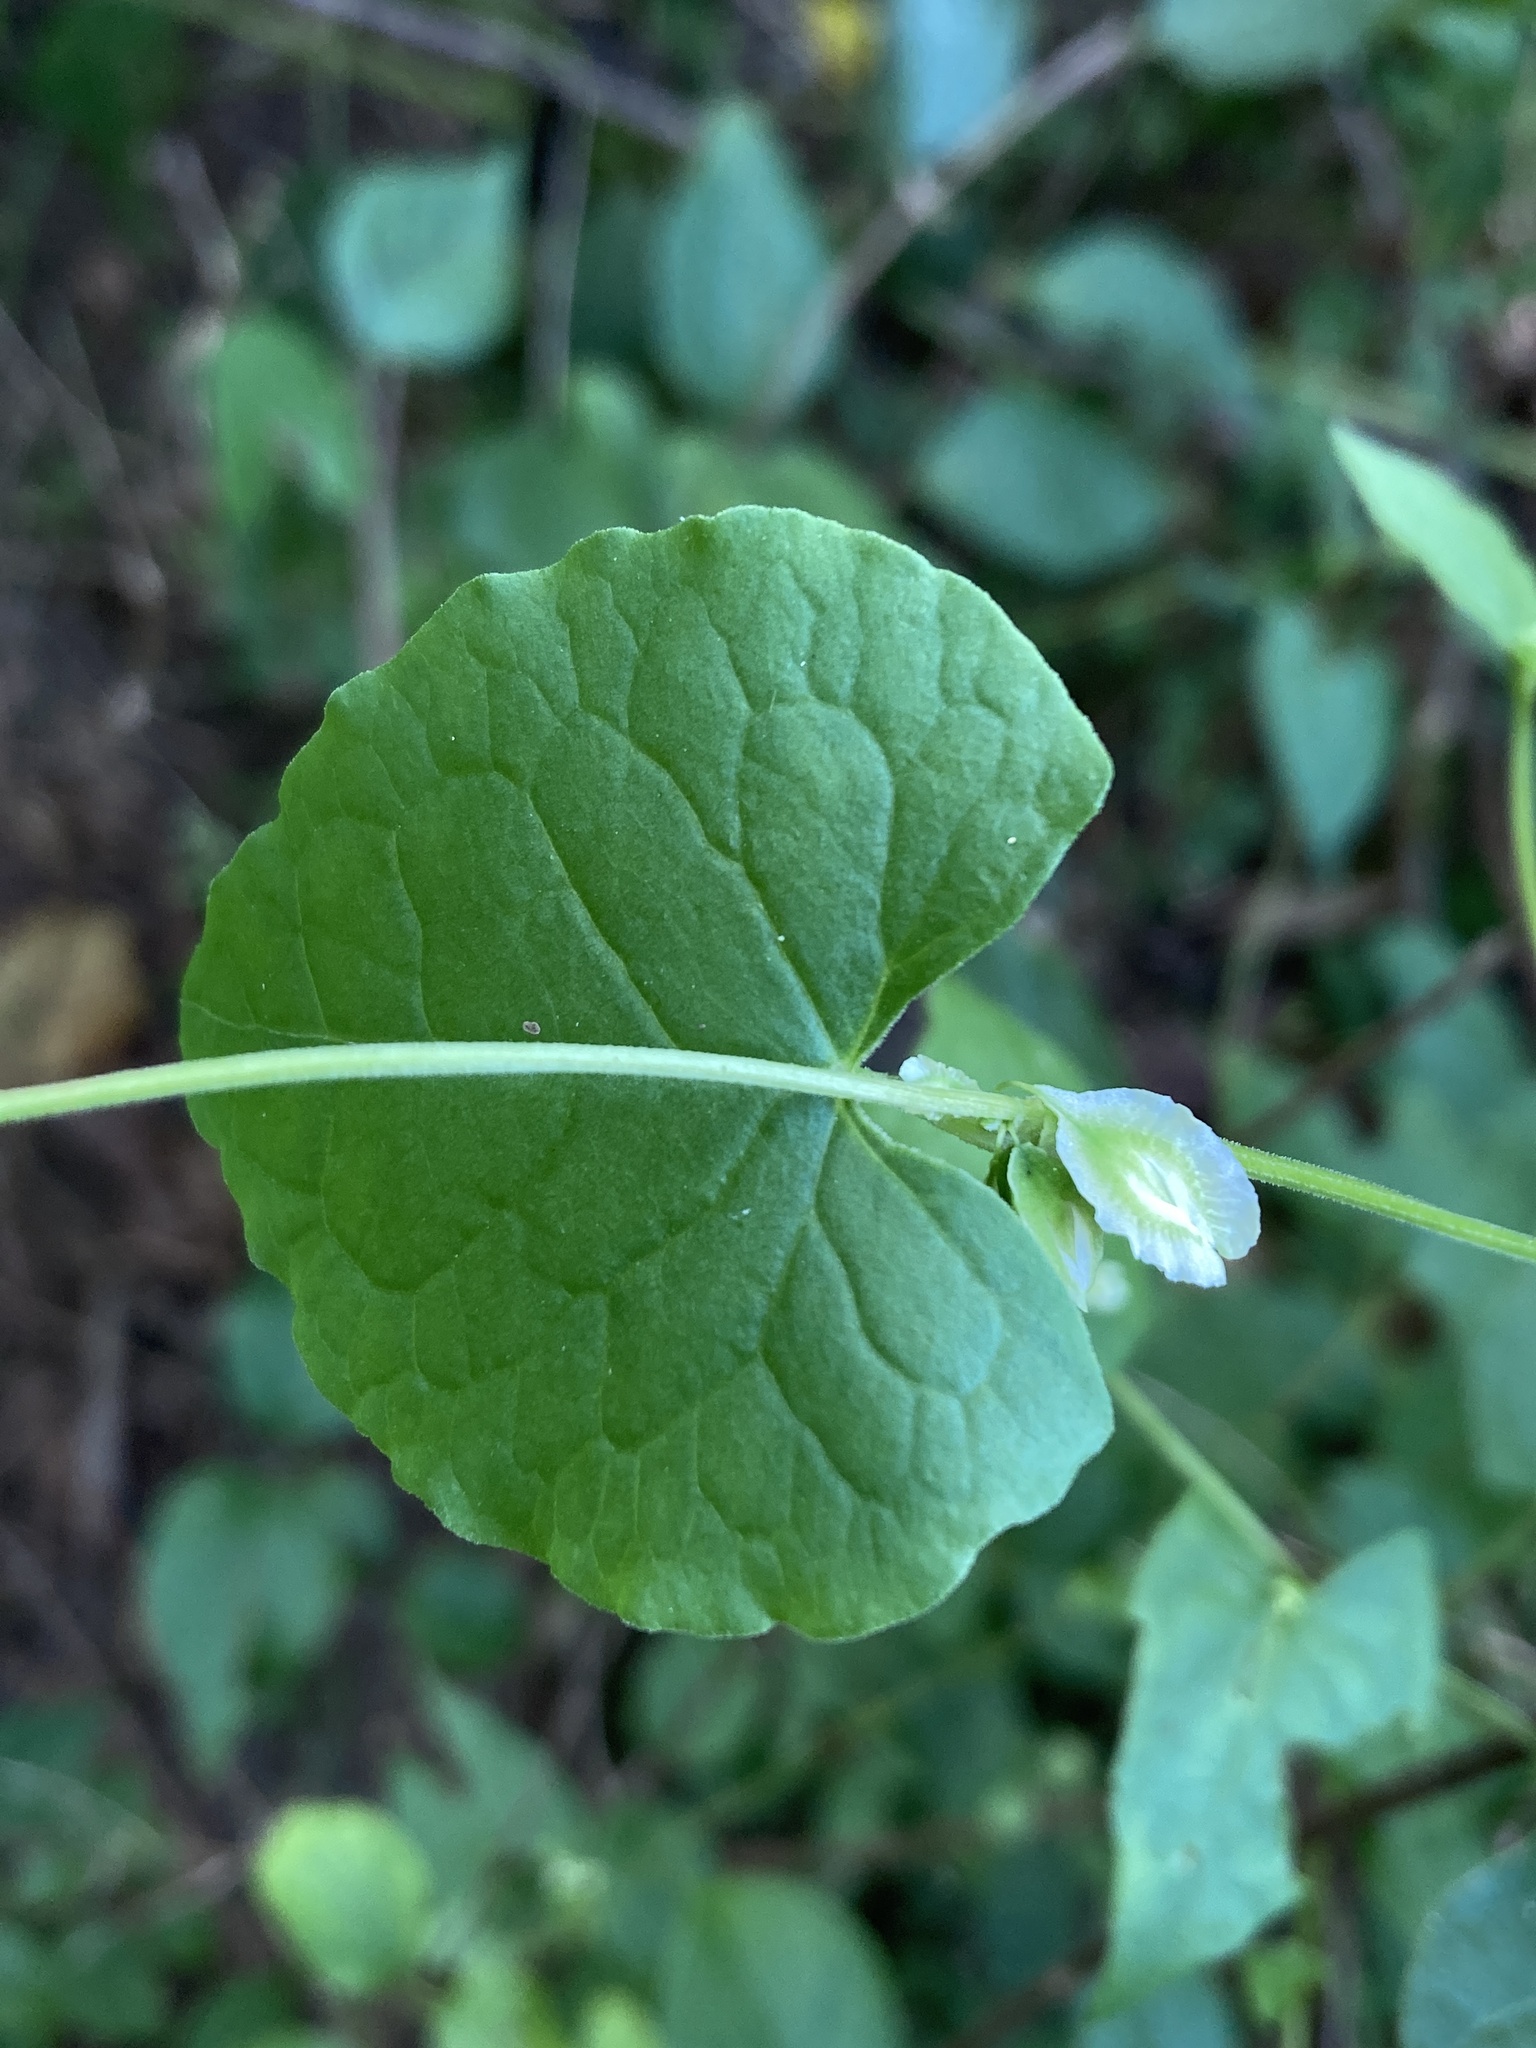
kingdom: Plantae
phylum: Tracheophyta
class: Magnoliopsida
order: Caryophyllales
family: Polygonaceae
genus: Fallopia
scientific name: Fallopia scandens
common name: Climbing false buckwheat
